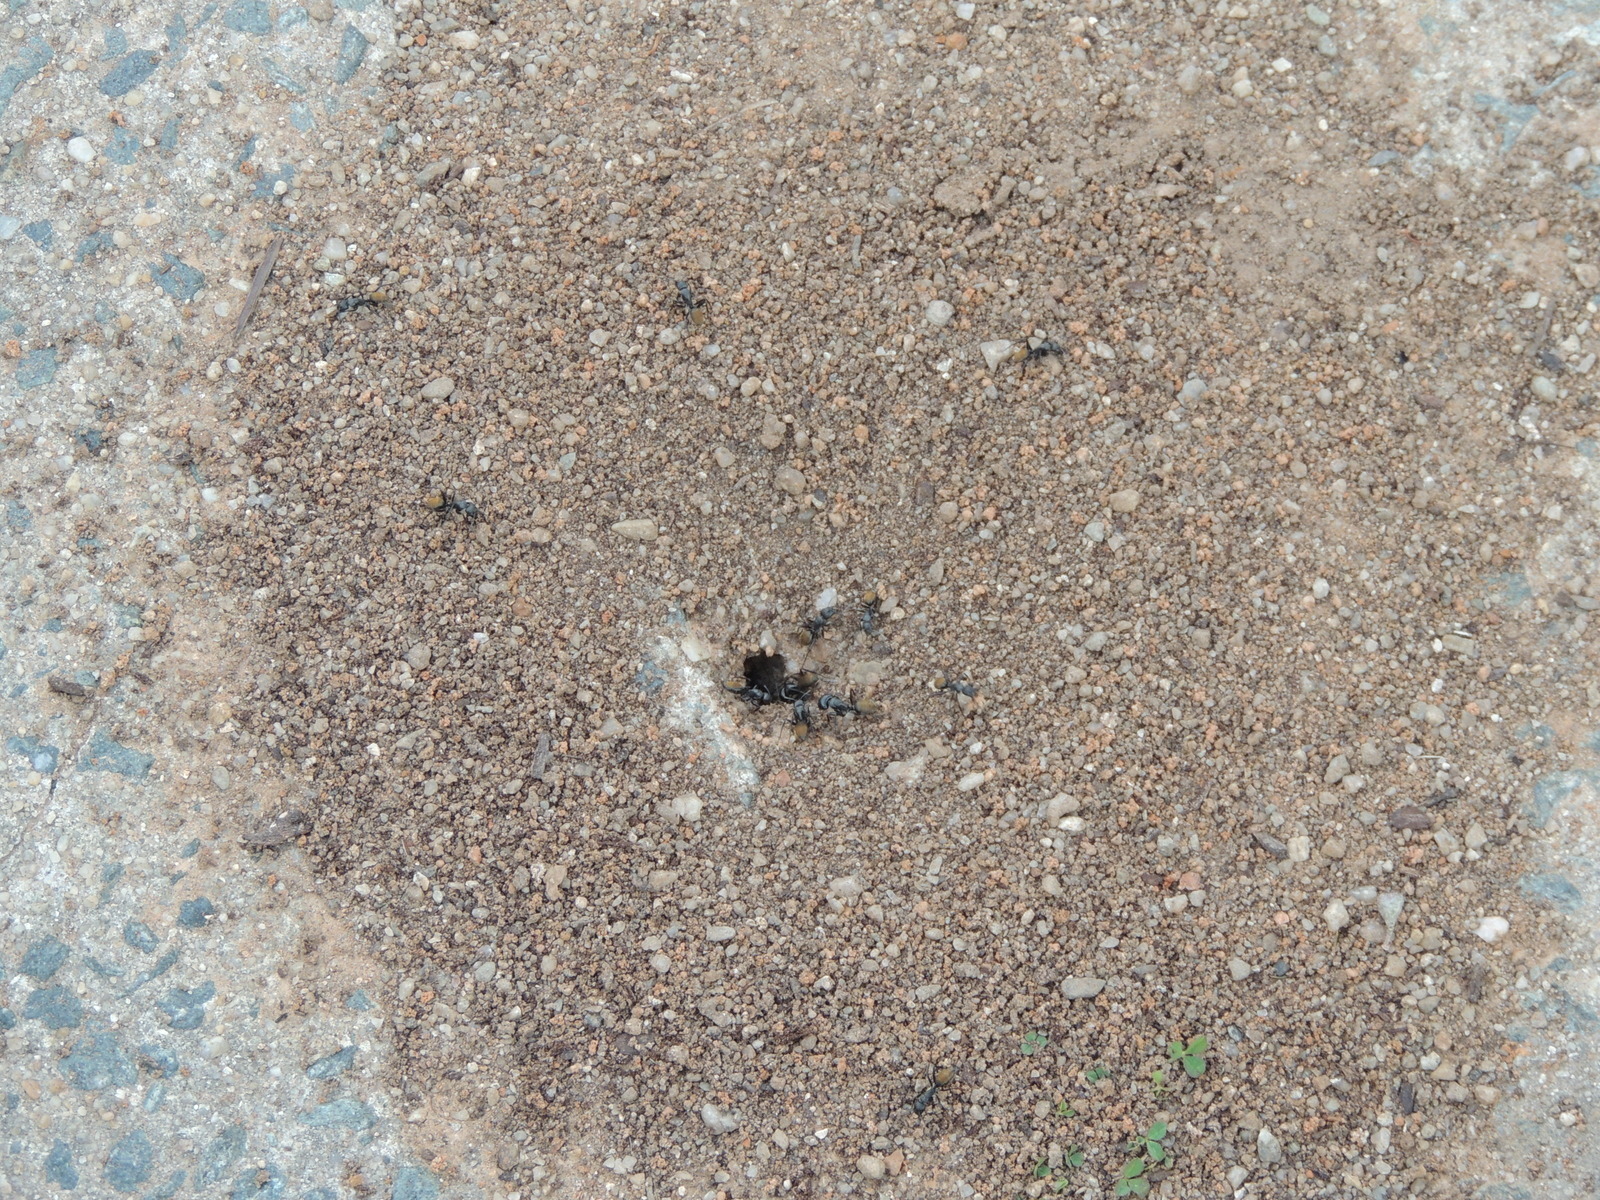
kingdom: Animalia
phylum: Arthropoda
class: Insecta
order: Hymenoptera
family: Formicidae
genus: Camponotus
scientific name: Camponotus aeneopilosus
